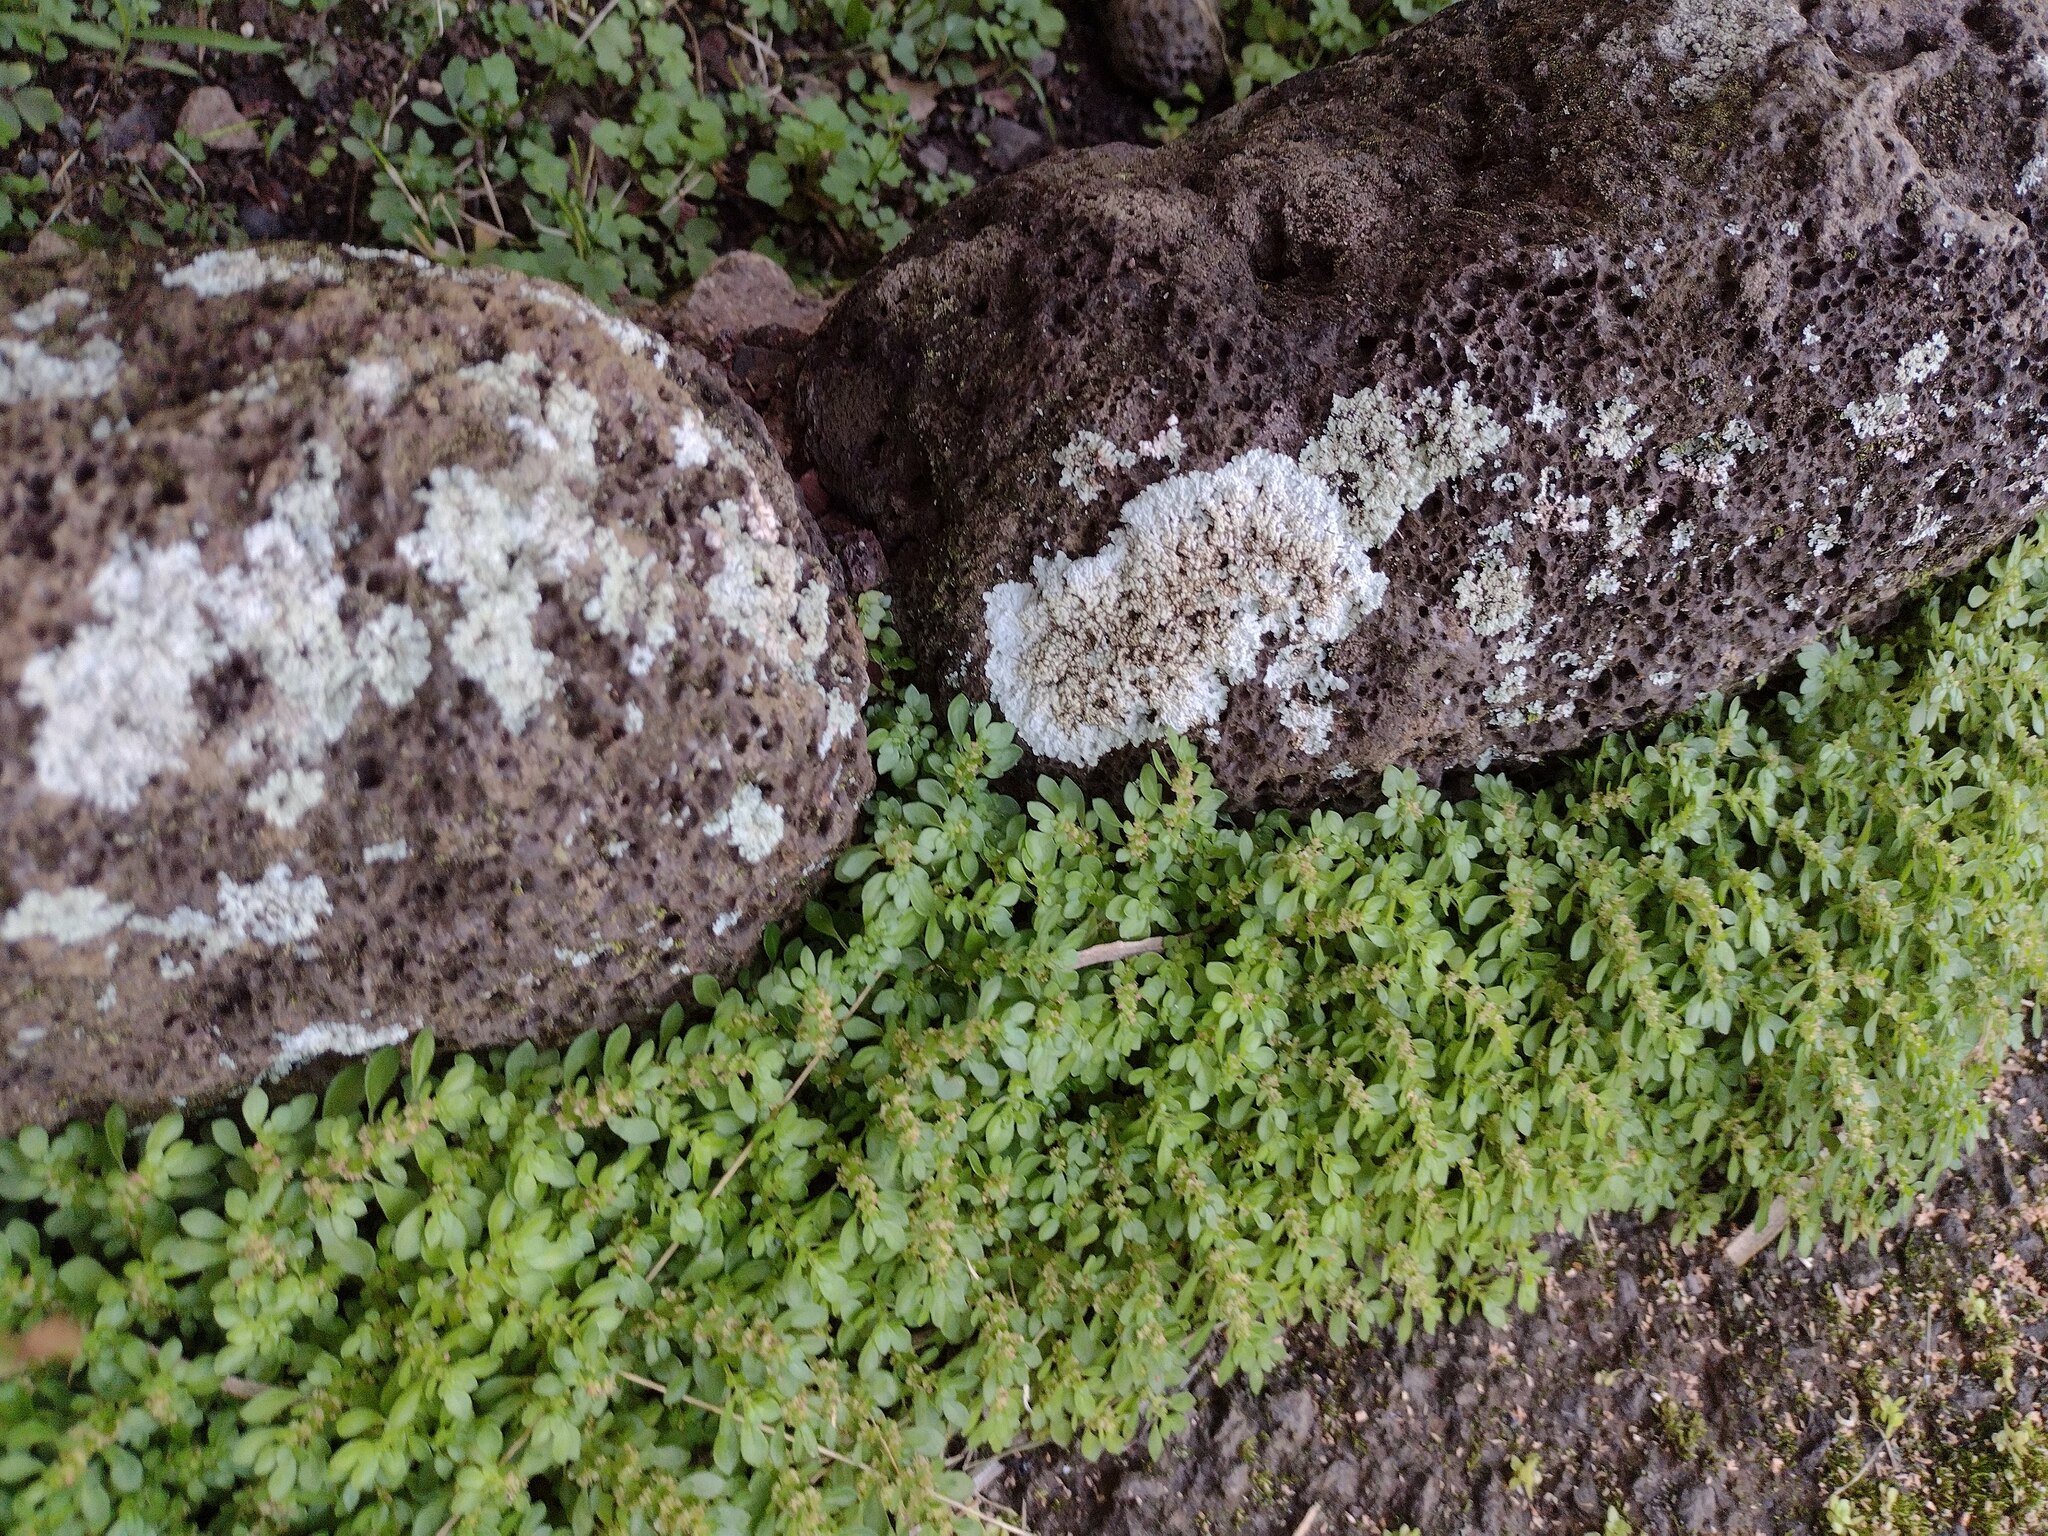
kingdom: Plantae
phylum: Tracheophyta
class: Magnoliopsida
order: Rosales
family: Urticaceae
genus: Pilea
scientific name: Pilea microphylla
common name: Artillery-plant
